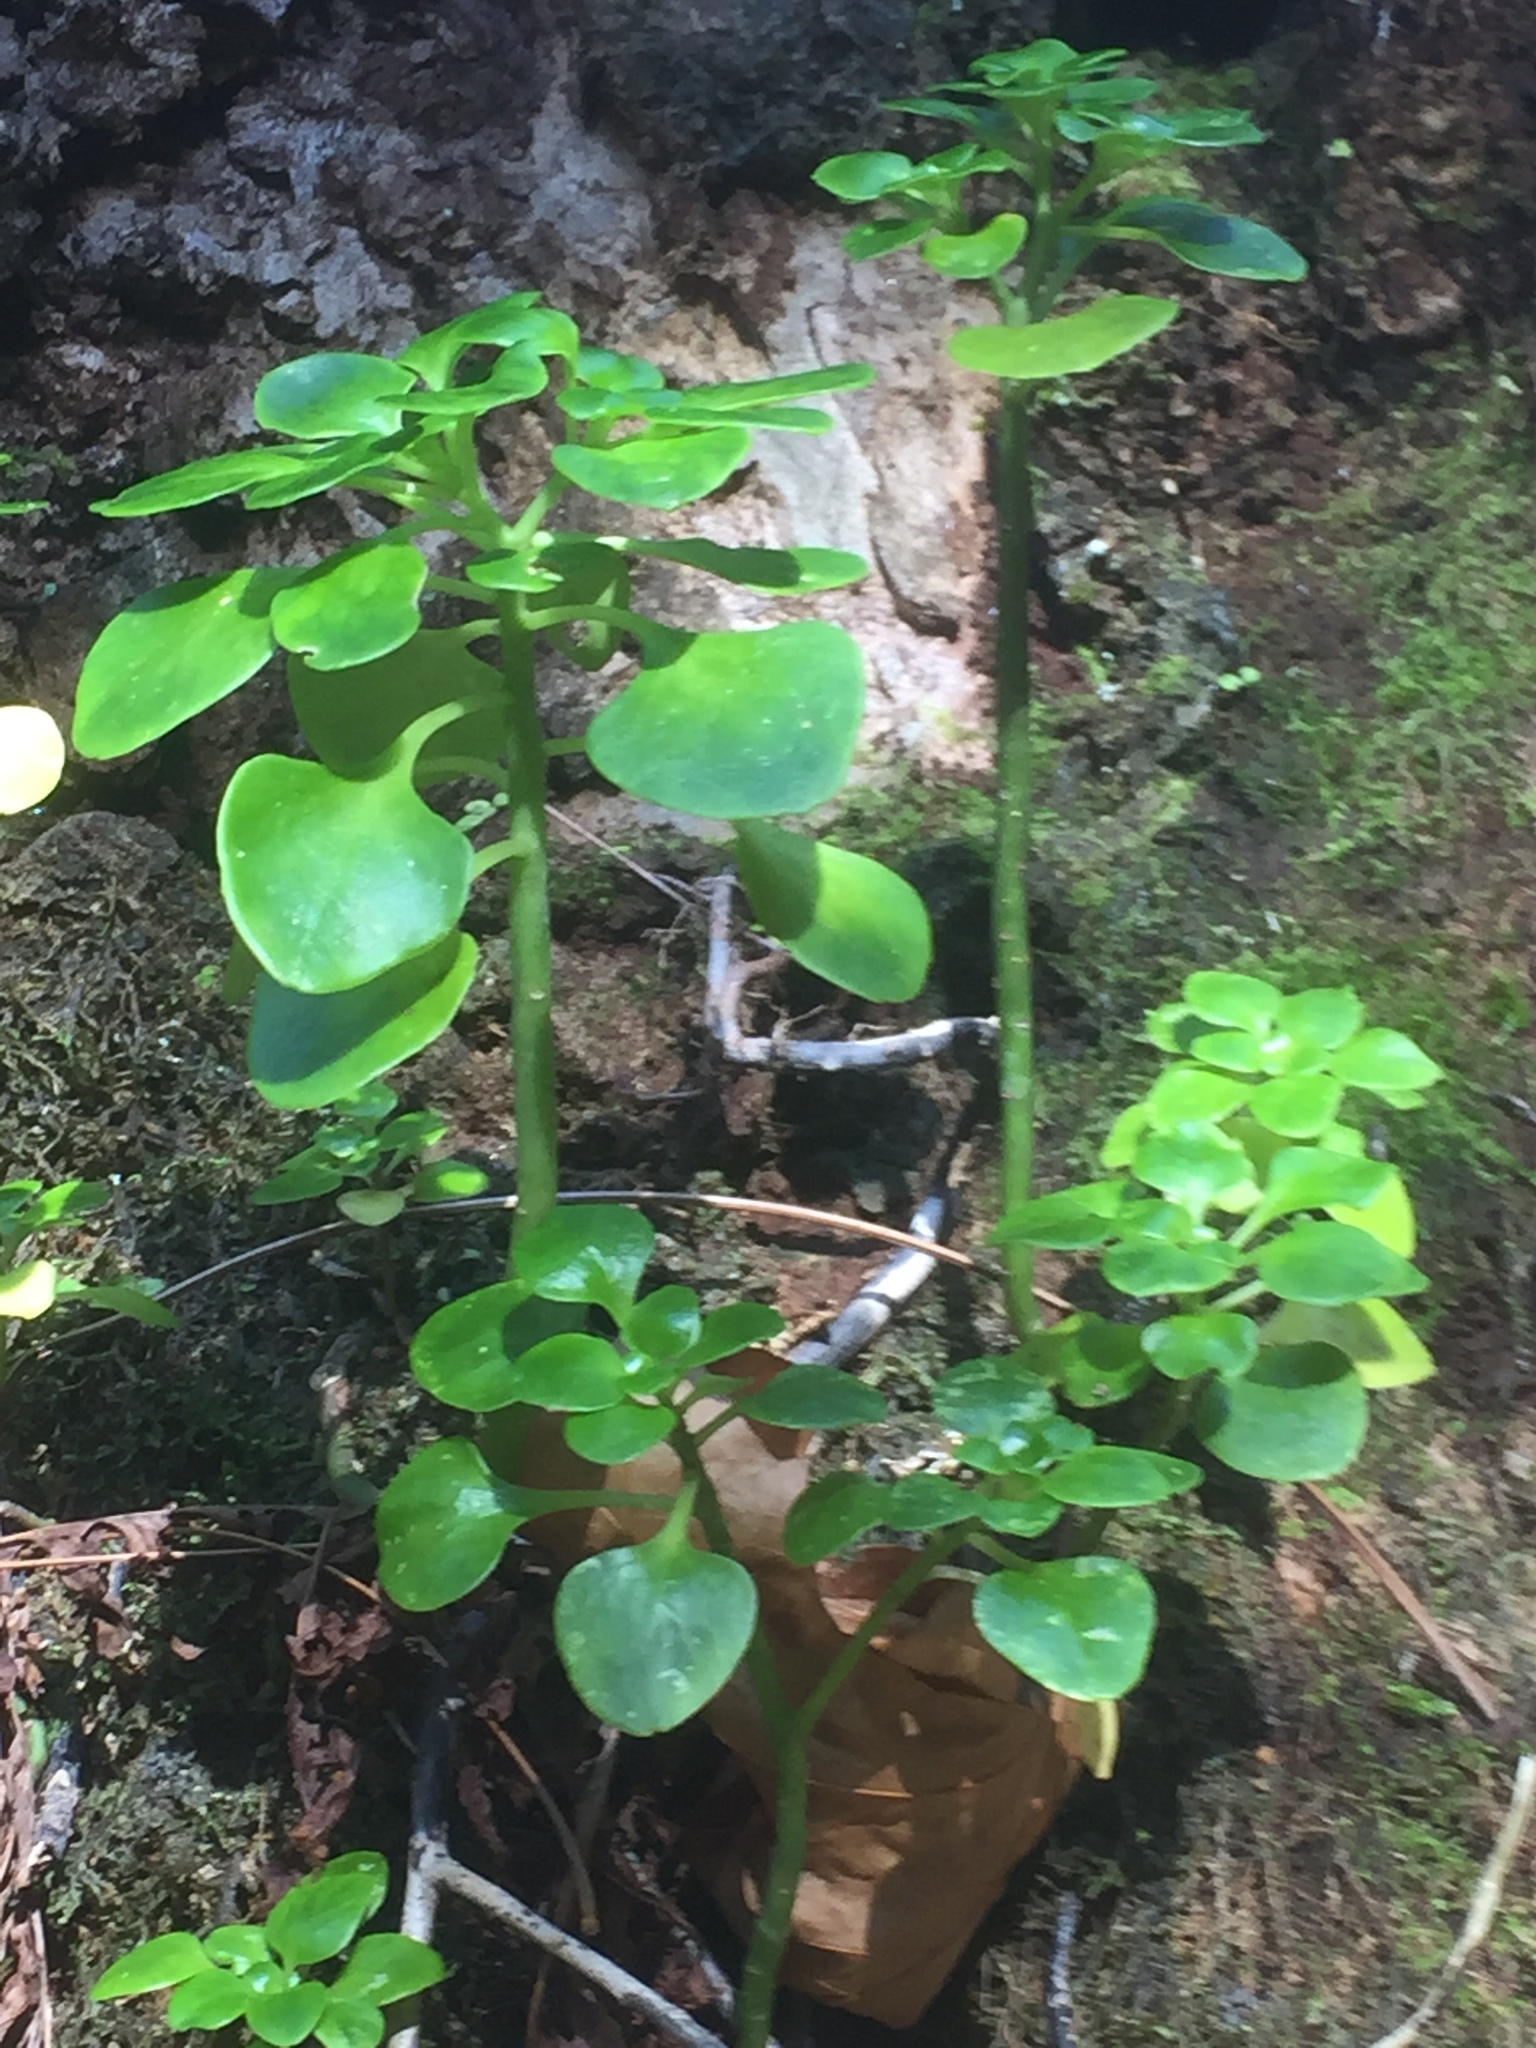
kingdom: Plantae
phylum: Tracheophyta
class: Magnoliopsida
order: Saxifragales
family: Crassulaceae
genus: Aichryson
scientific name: Aichryson divaricatum
